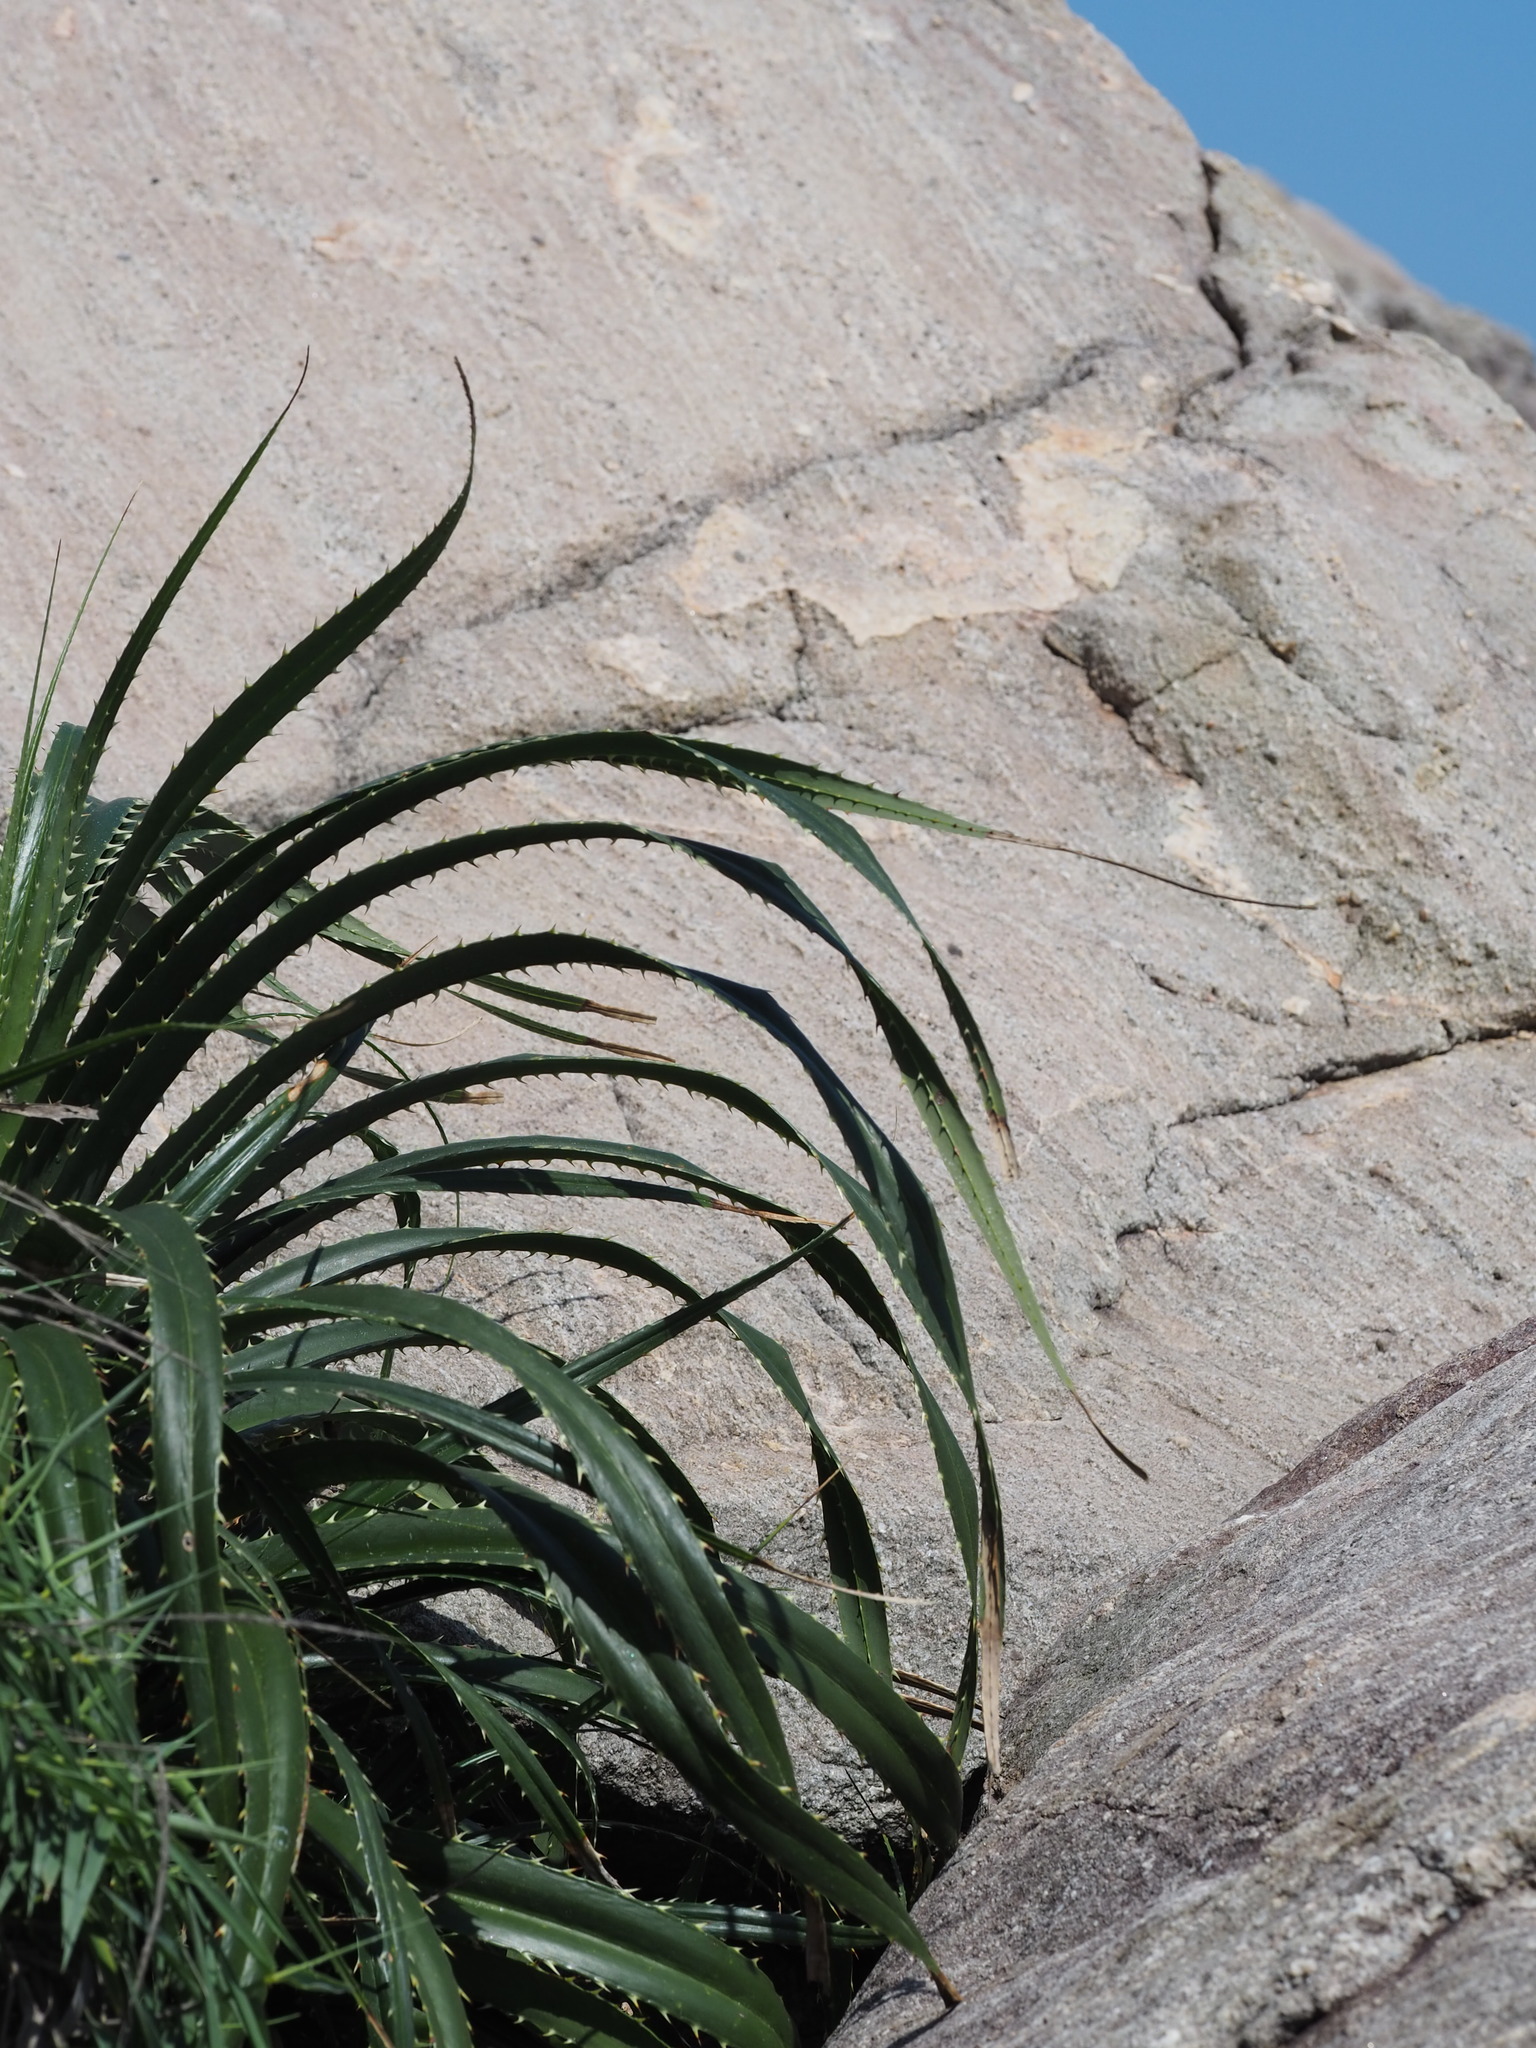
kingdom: Plantae
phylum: Tracheophyta
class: Liliopsida
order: Pandanales
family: Pandanaceae
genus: Pandanus
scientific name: Pandanus odorifer
